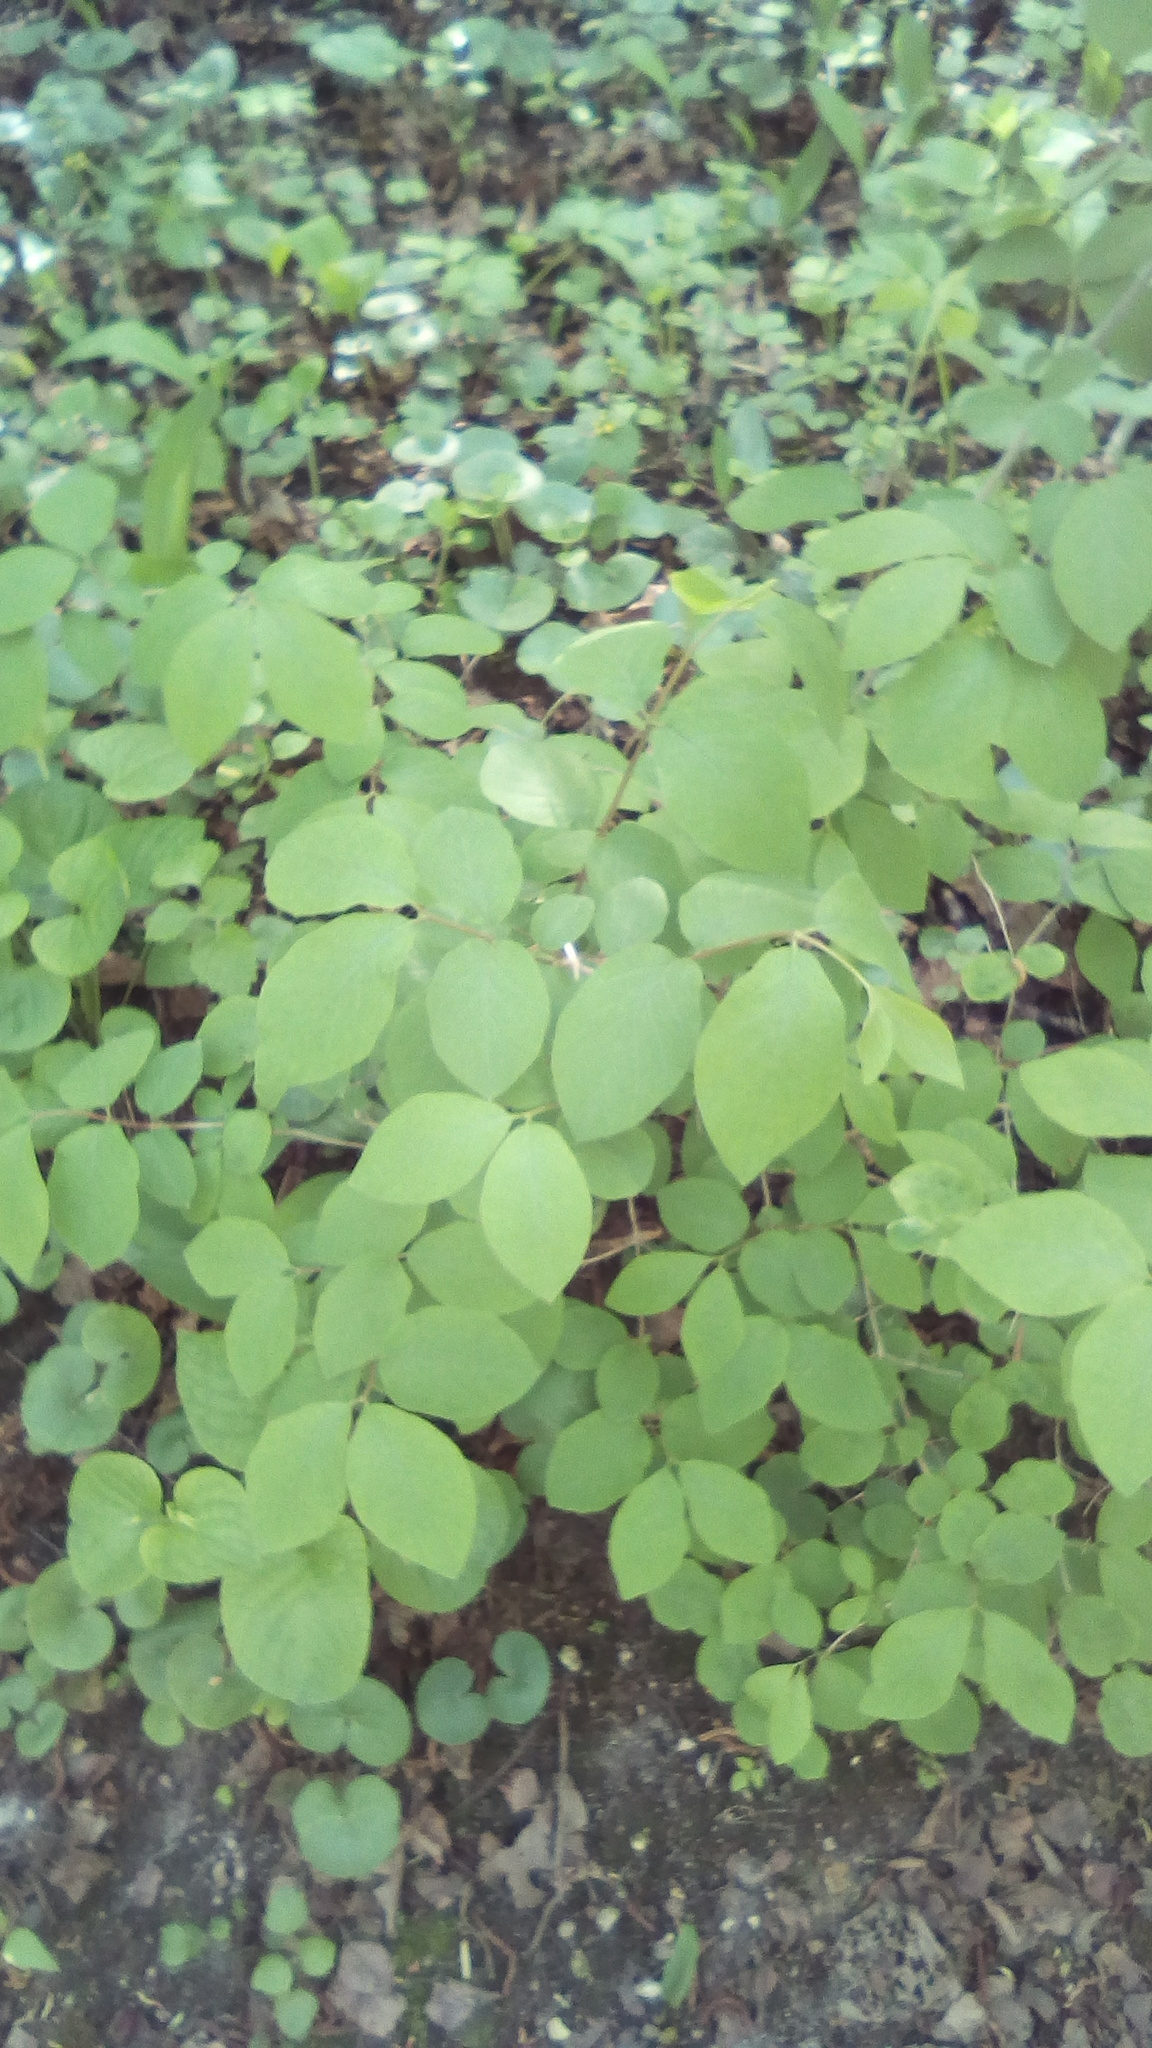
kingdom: Plantae
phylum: Tracheophyta
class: Magnoliopsida
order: Dipsacales
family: Caprifoliaceae
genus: Lonicera
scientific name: Lonicera xylosteum
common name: Fly honeysuckle
